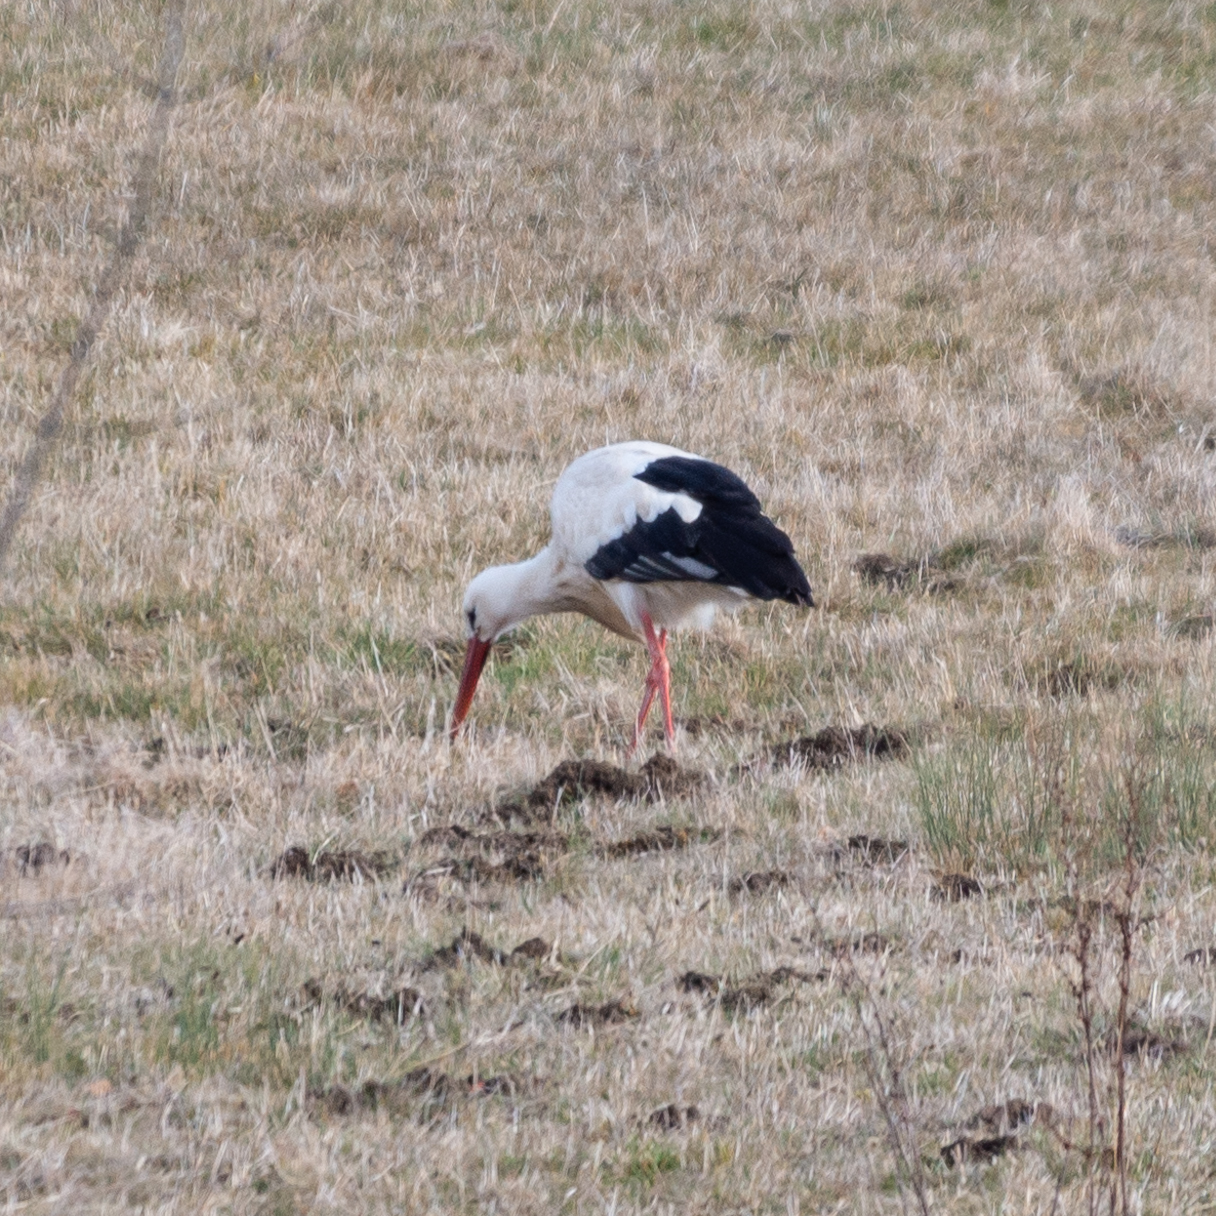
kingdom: Animalia
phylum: Chordata
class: Aves
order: Ciconiiformes
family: Ciconiidae
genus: Ciconia
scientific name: Ciconia ciconia
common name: White stork
